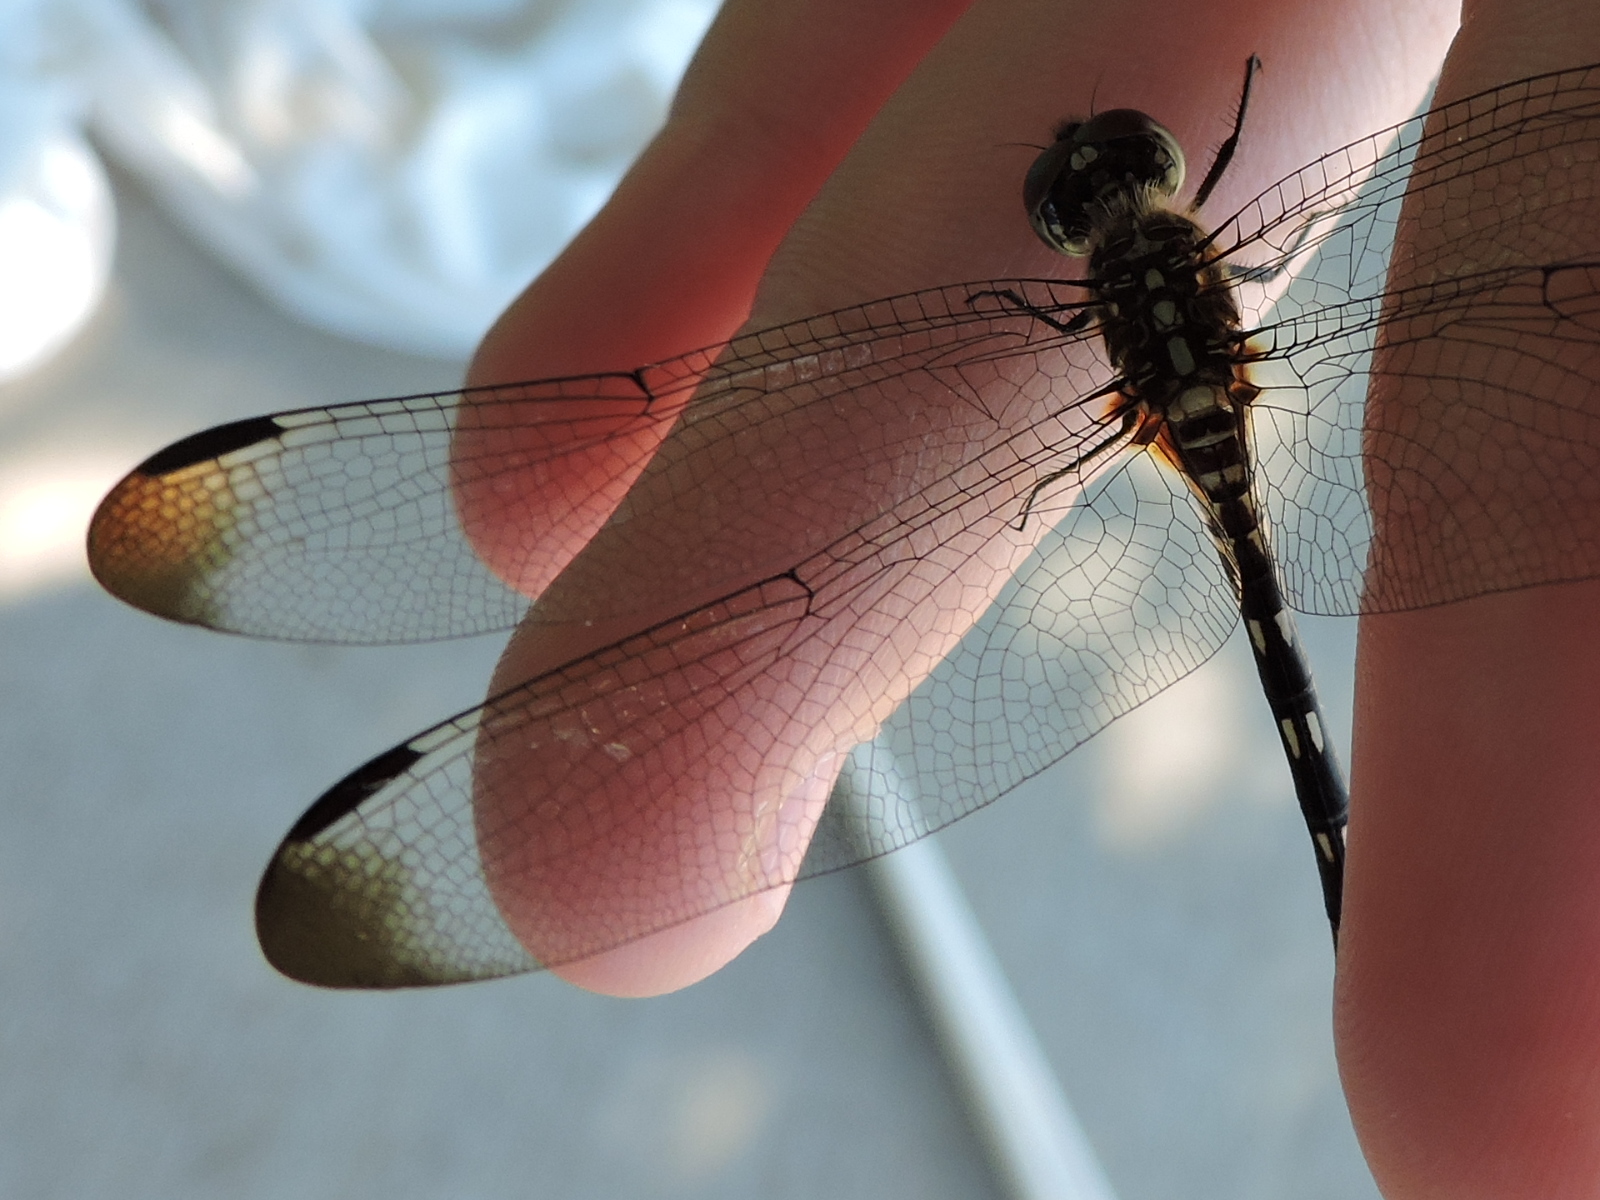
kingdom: Animalia
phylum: Arthropoda
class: Insecta
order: Odonata
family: Libellulidae
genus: Dythemis
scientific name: Dythemis velox
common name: Swift setwing
